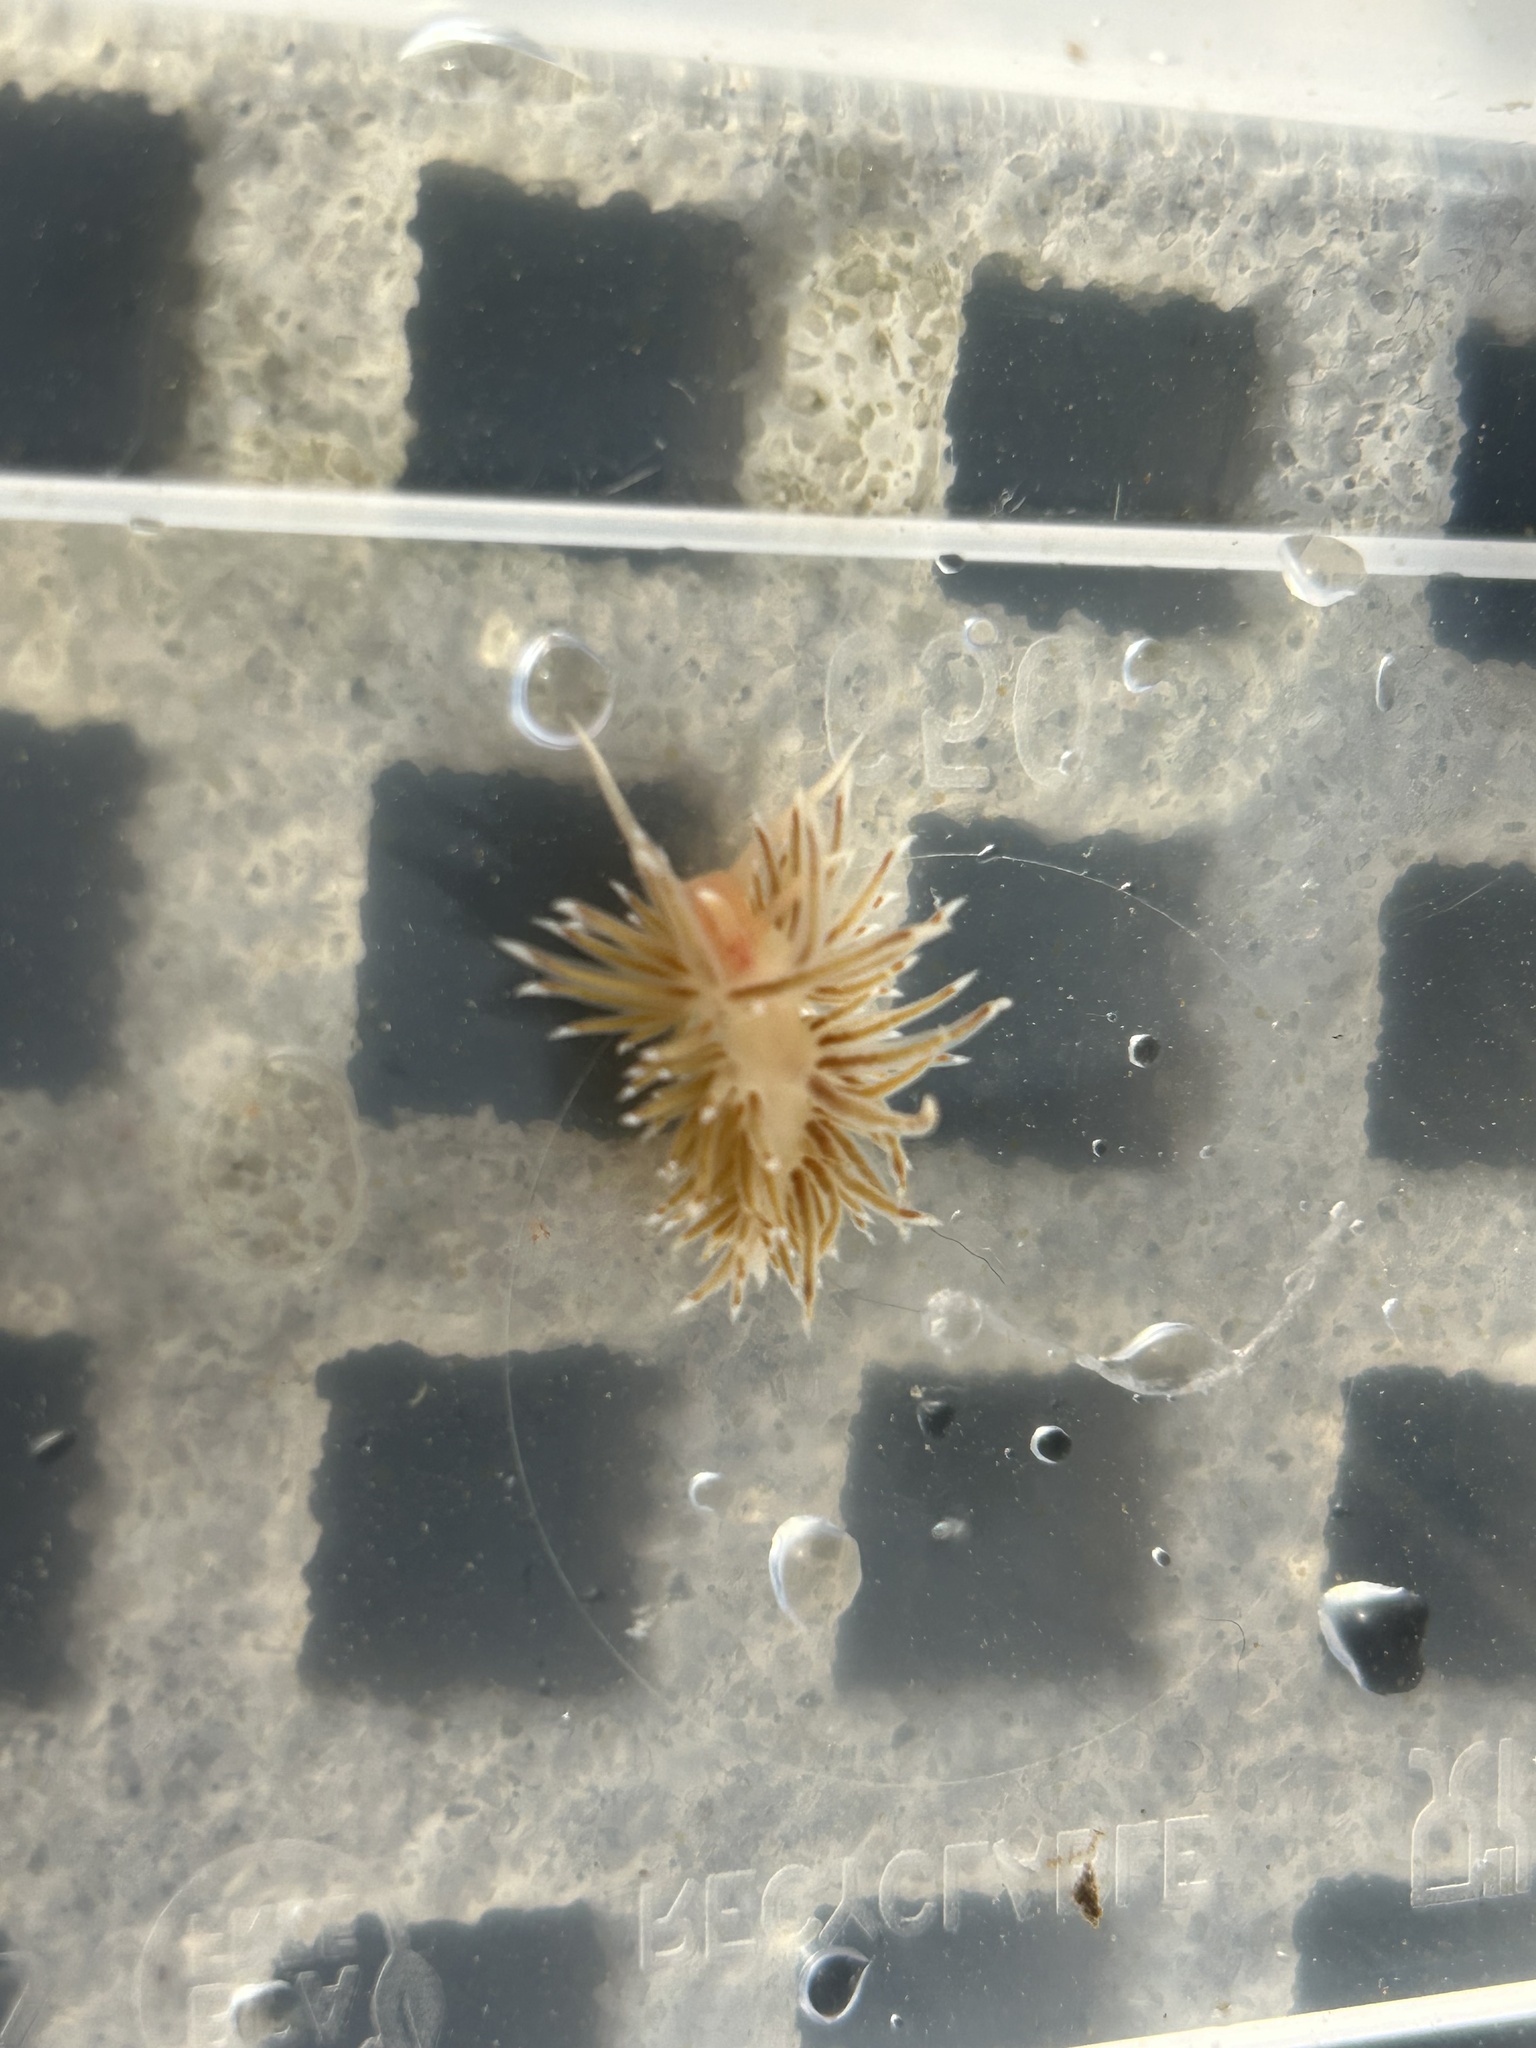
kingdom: Animalia
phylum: Mollusca
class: Gastropoda
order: Nudibranchia
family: Facelinidae
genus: Facelina
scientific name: Facelina bostoniensis
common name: Boston facelina
